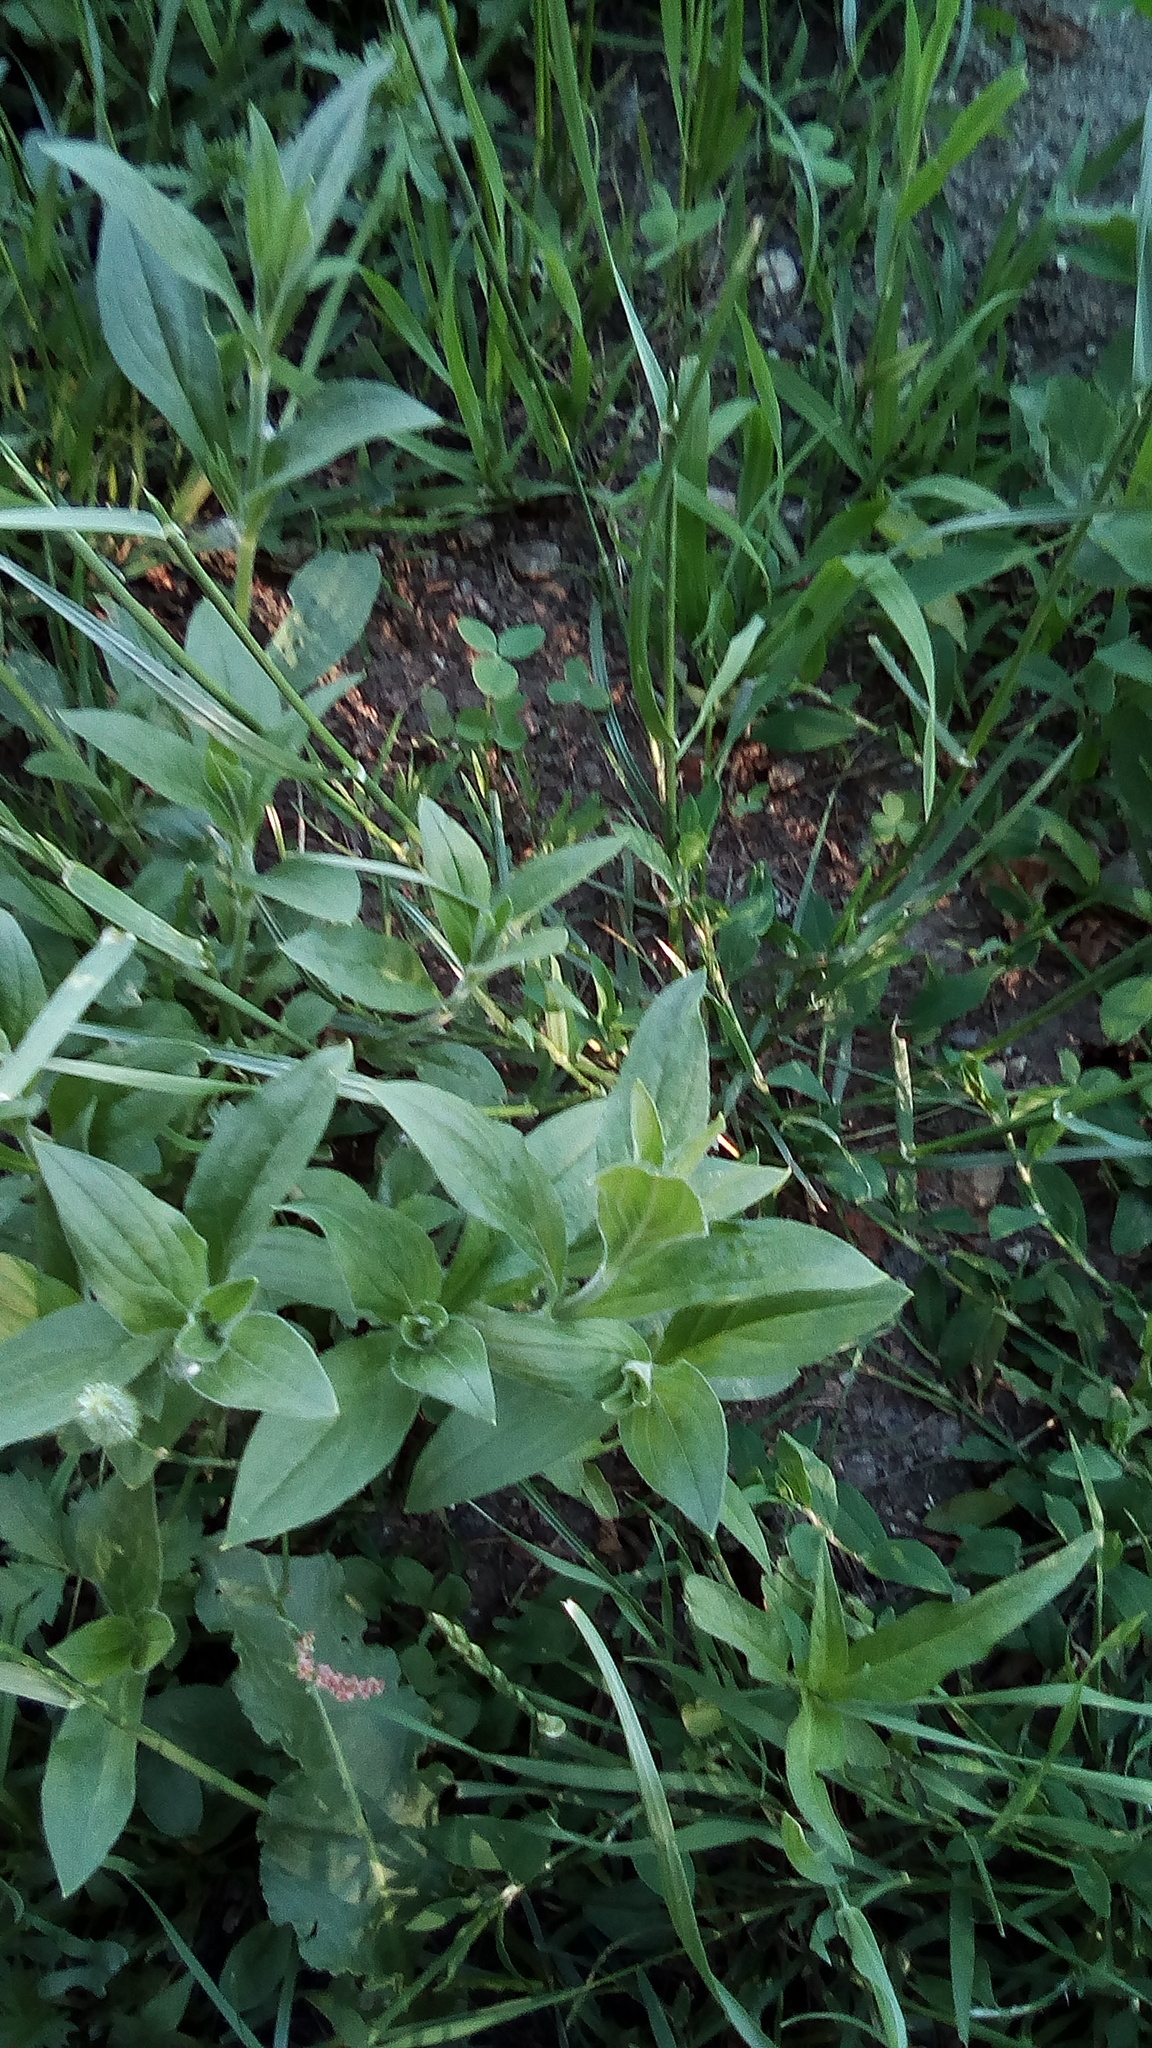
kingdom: Plantae
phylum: Tracheophyta
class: Magnoliopsida
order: Caryophyllales
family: Caryophyllaceae
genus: Silene
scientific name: Silene latifolia
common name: White campion
